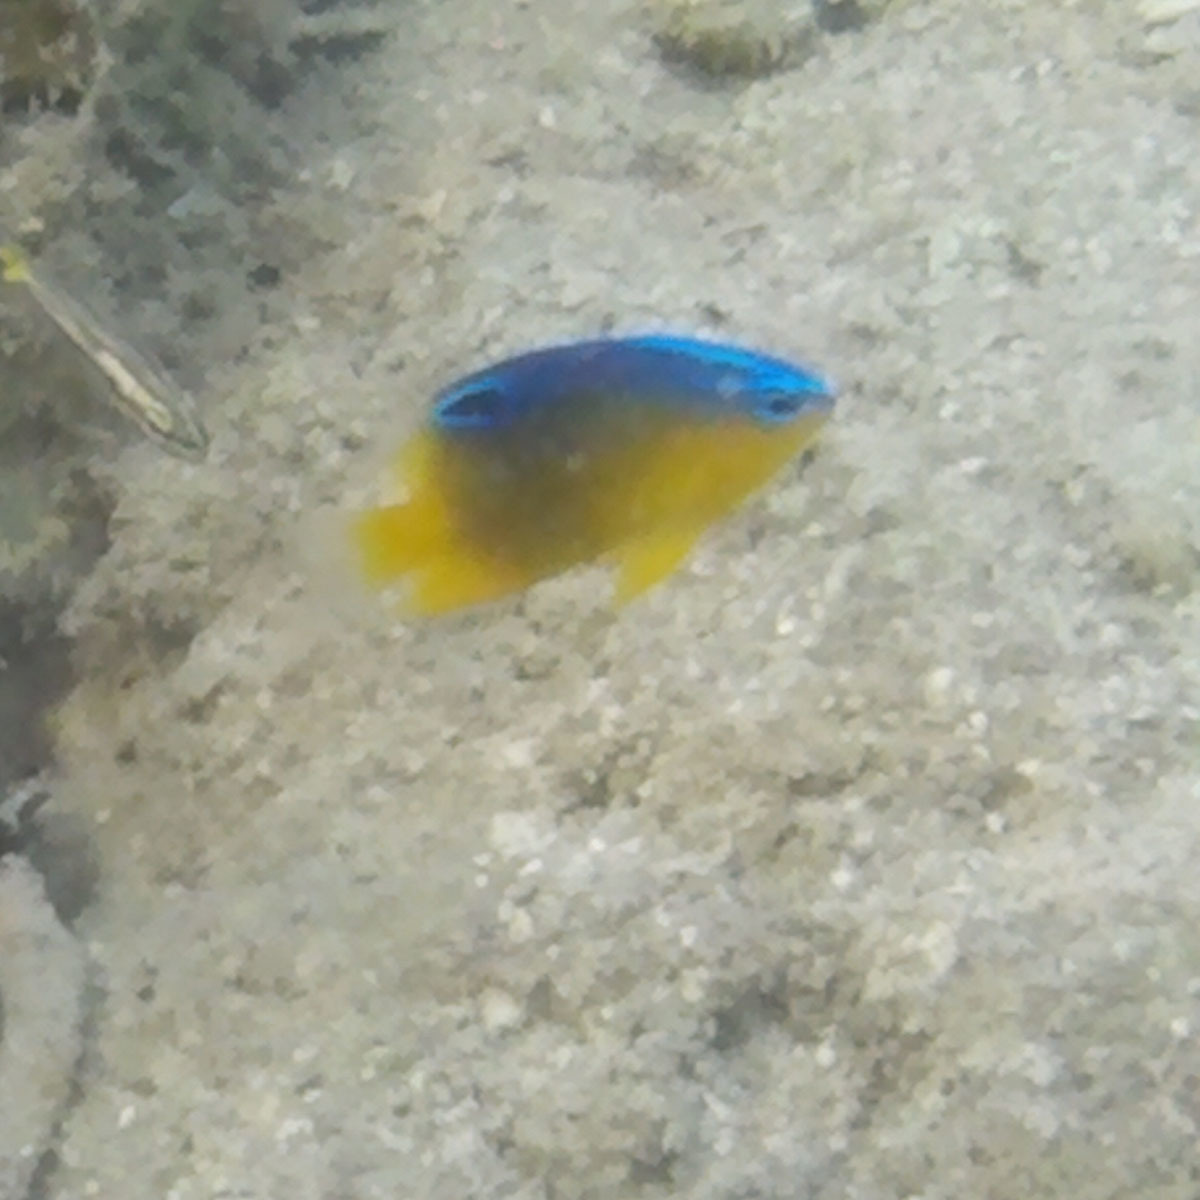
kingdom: Animalia
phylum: Chordata
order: Perciformes
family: Pomacentridae
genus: Chrysiptera
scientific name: Chrysiptera unimaculata
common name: Onespot demoiselle
